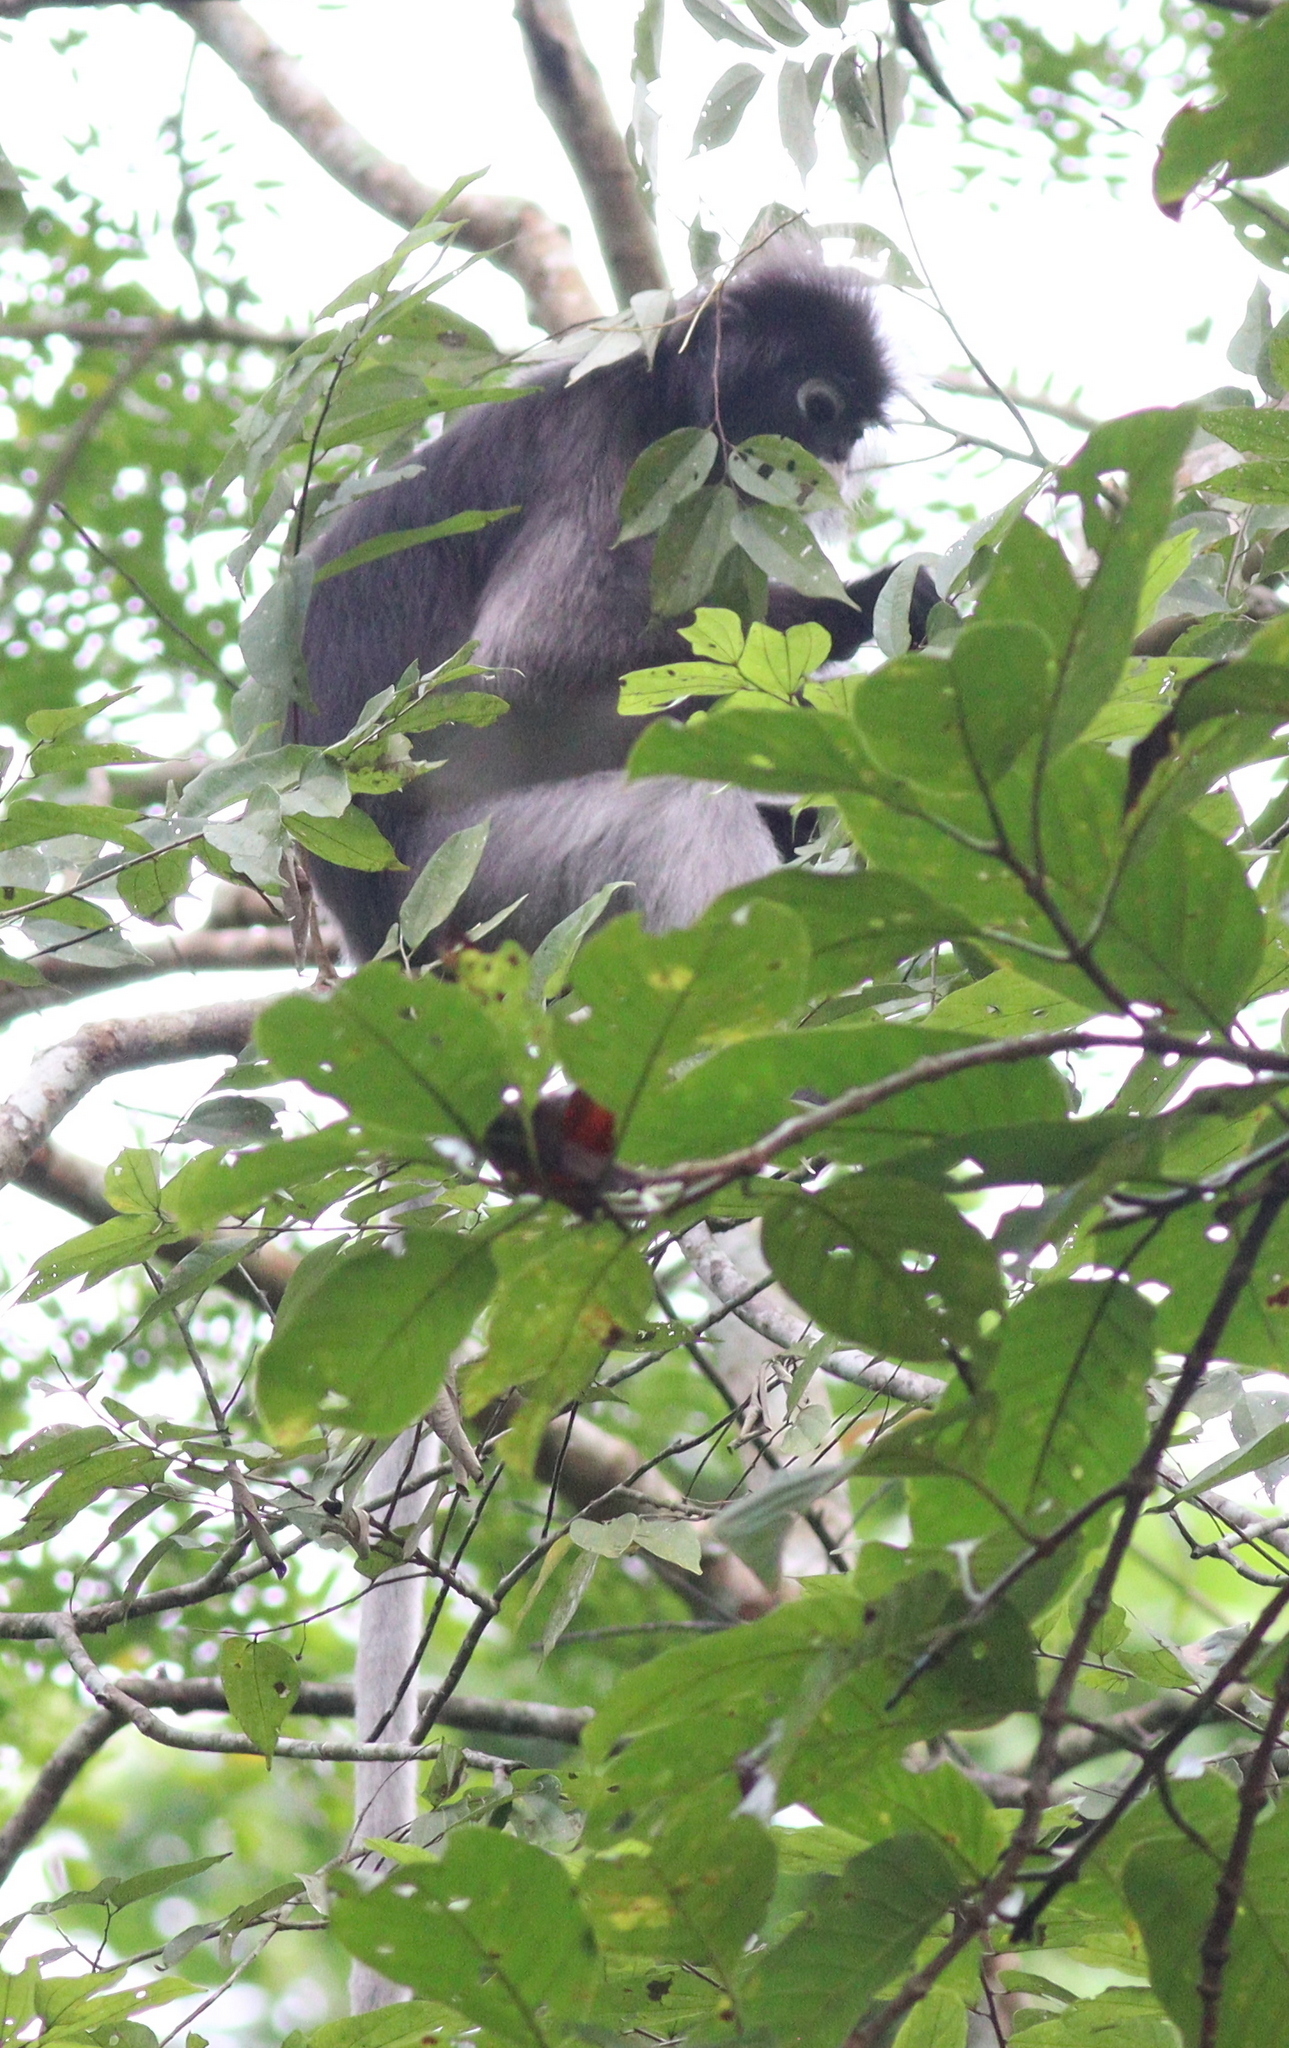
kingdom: Animalia
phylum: Chordata
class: Mammalia
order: Primates
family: Cercopithecidae
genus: Trachypithecus
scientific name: Trachypithecus obscurus
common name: Dusky leaf-monkey
